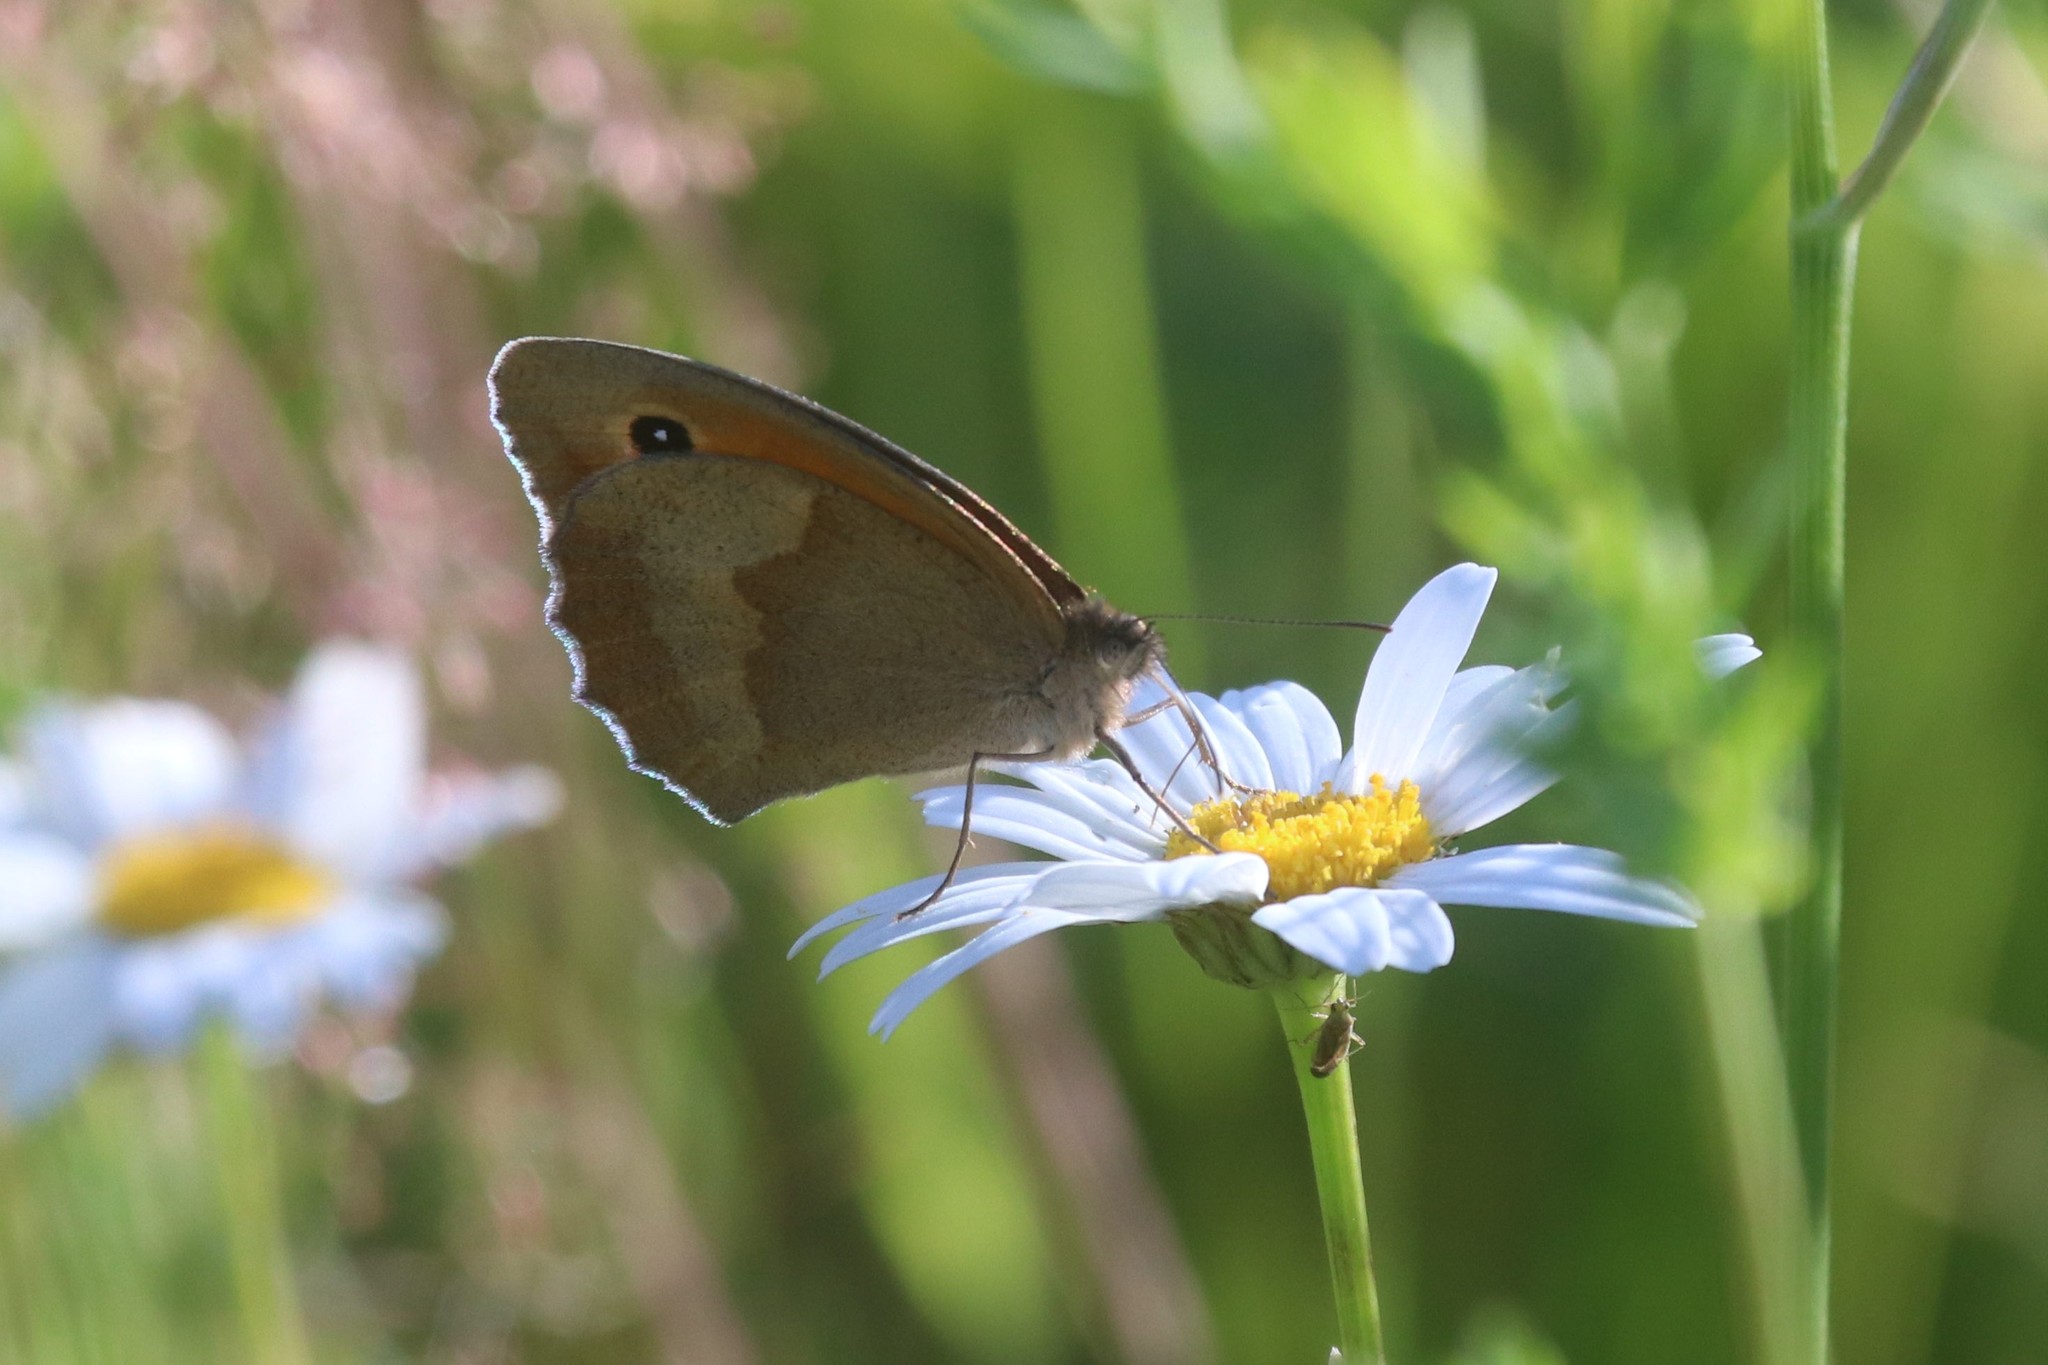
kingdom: Animalia
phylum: Arthropoda
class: Insecta
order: Lepidoptera
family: Nymphalidae
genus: Maniola
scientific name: Maniola jurtina
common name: Meadow brown
